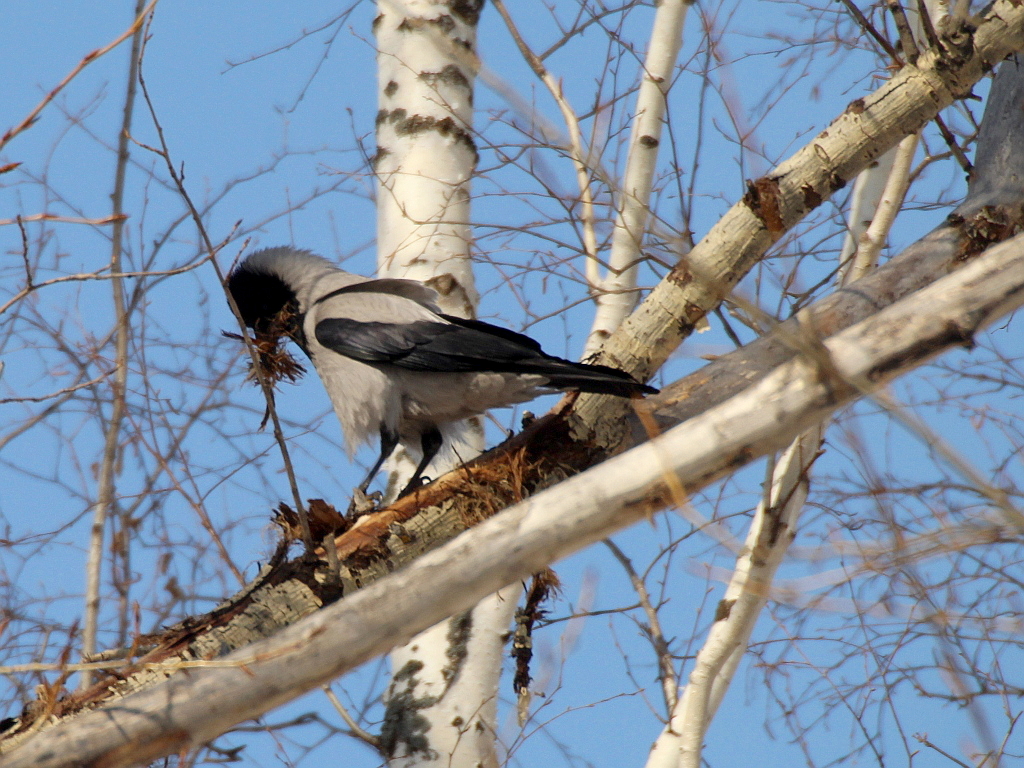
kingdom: Animalia
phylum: Chordata
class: Aves
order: Passeriformes
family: Corvidae
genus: Corvus
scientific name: Corvus cornix
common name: Hooded crow
